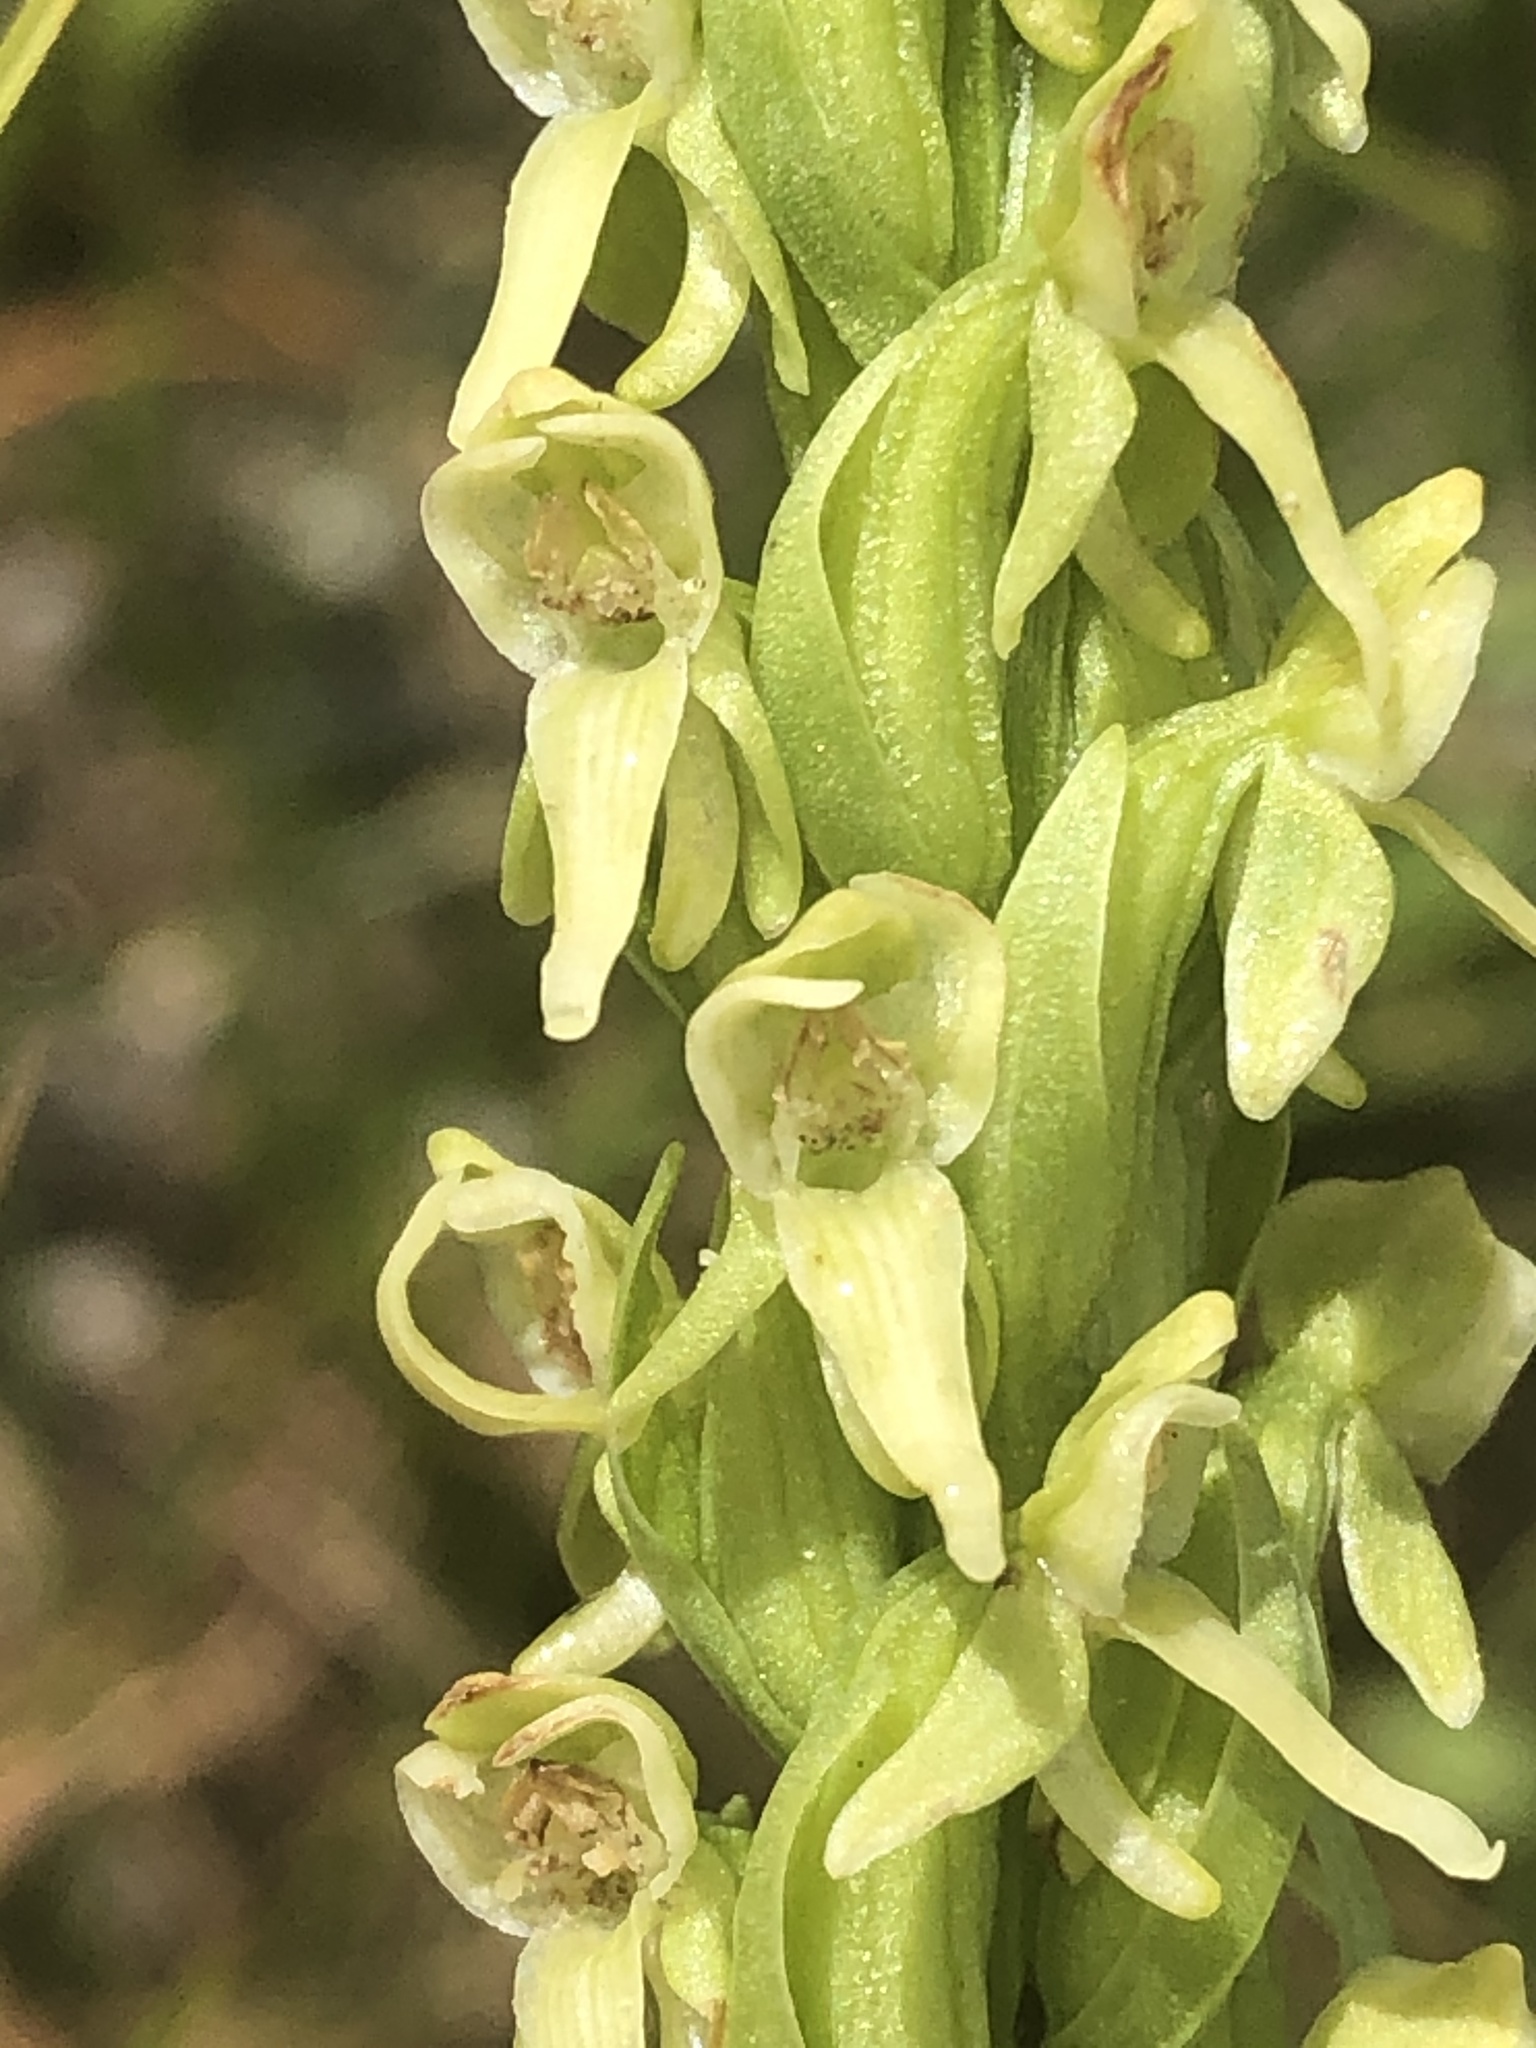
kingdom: Plantae
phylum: Tracheophyta
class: Liliopsida
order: Asparagales
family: Orchidaceae
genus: Platanthera
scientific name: Platanthera huronensis
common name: Fragrant green orchid
